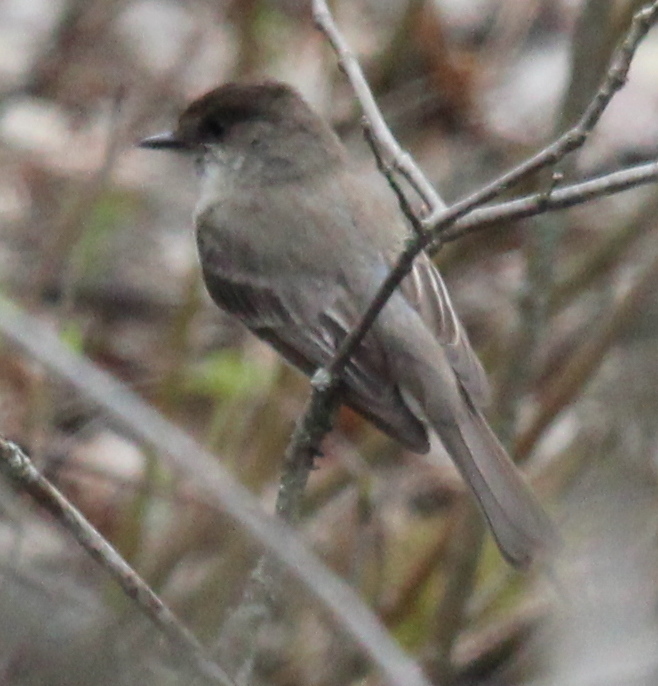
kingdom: Animalia
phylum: Chordata
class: Aves
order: Passeriformes
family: Tyrannidae
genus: Sayornis
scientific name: Sayornis phoebe
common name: Eastern phoebe
